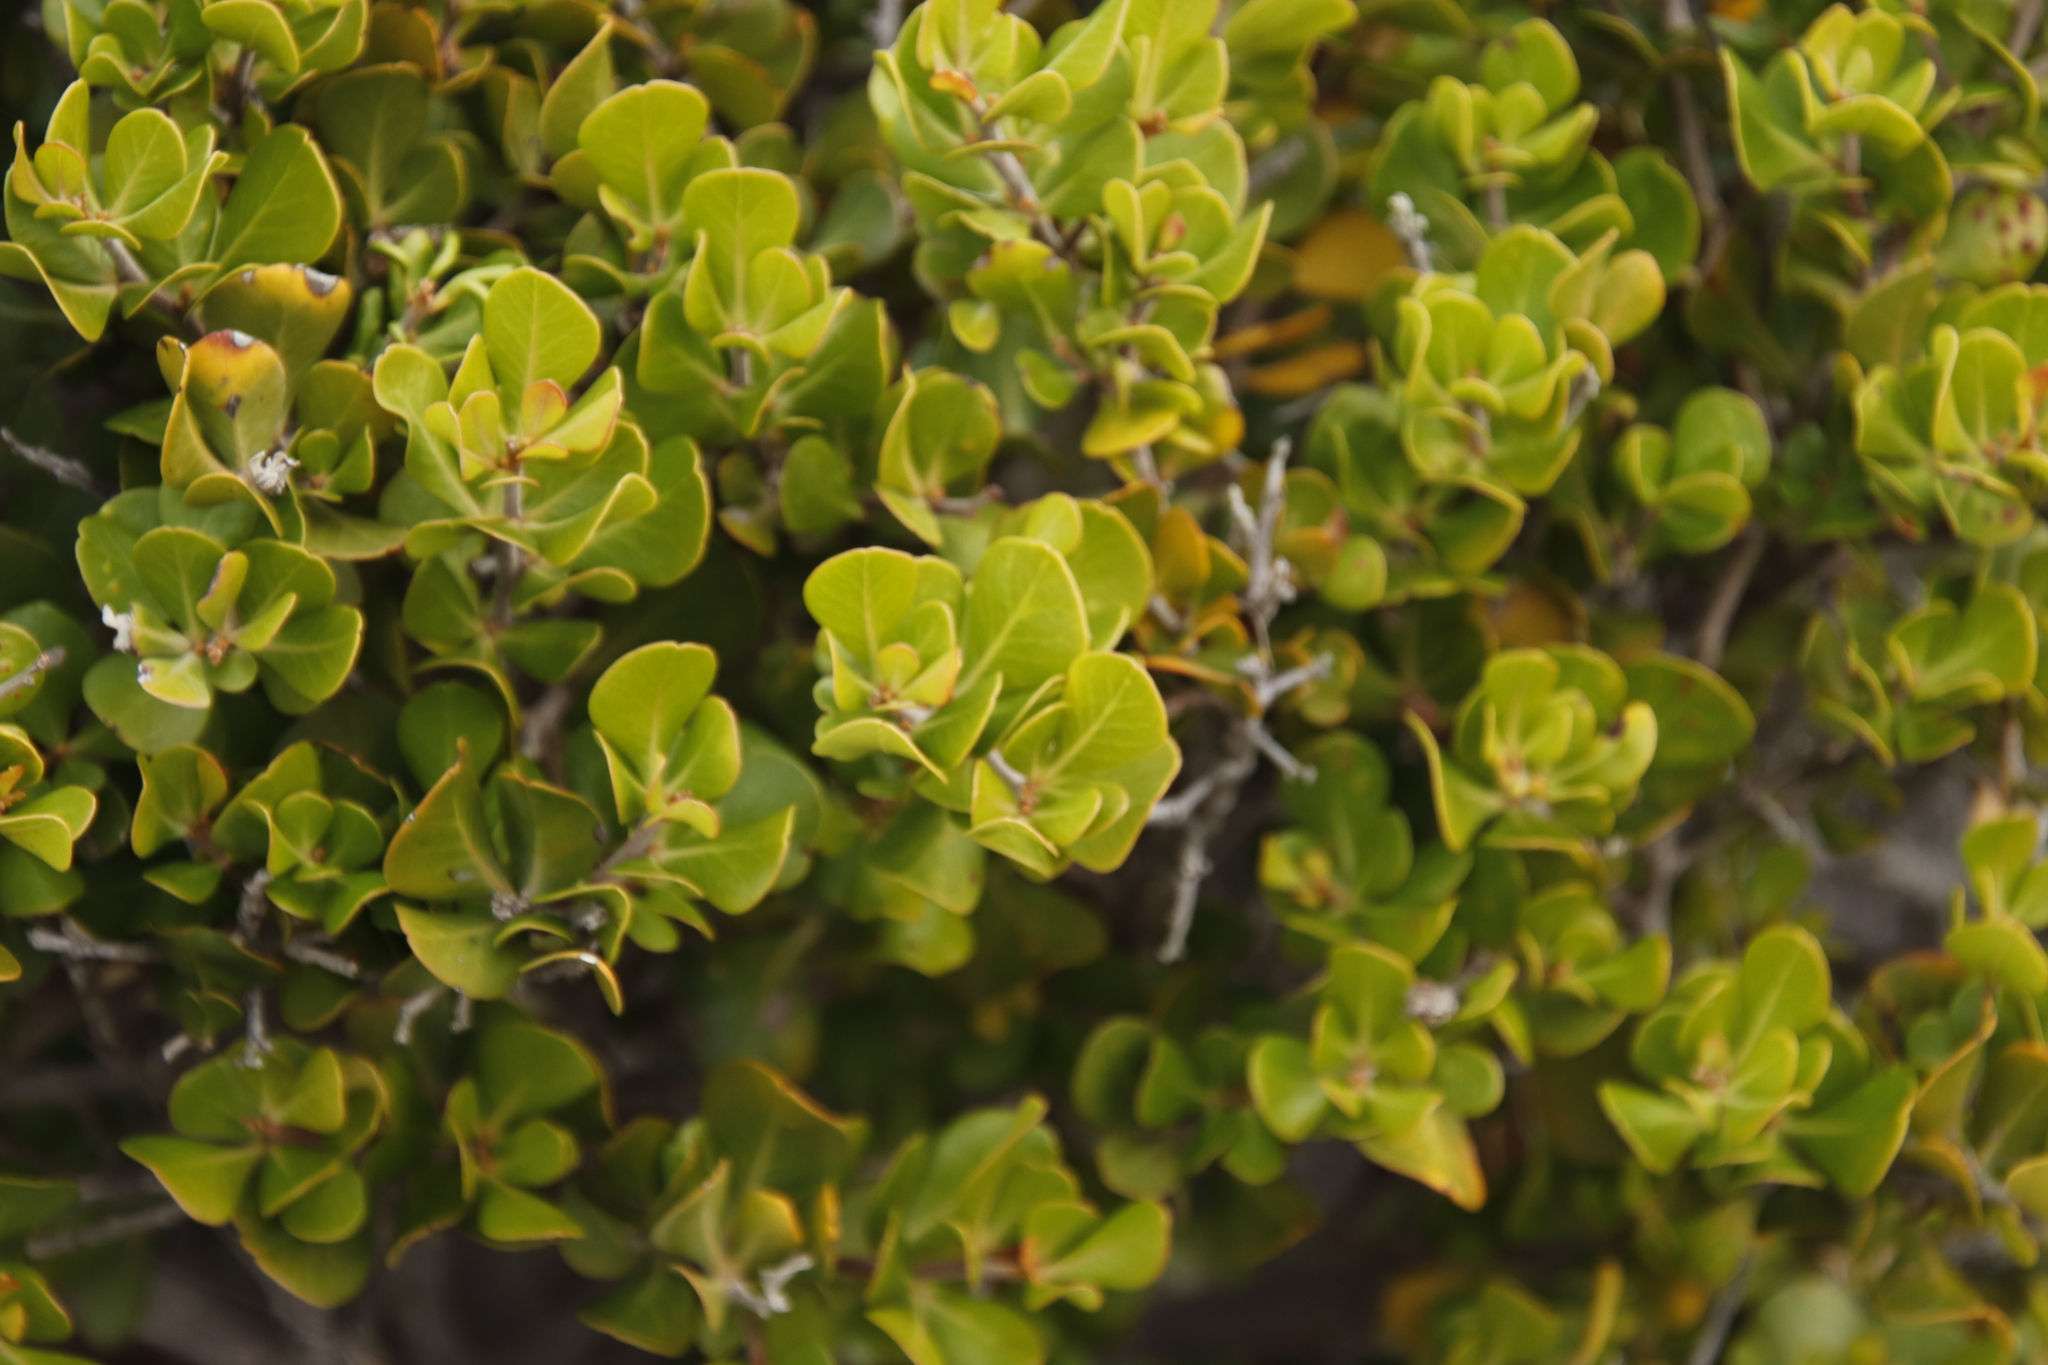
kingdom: Plantae
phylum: Tracheophyta
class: Magnoliopsida
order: Sapindales
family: Anacardiaceae
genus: Searsia
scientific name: Searsia lucida
